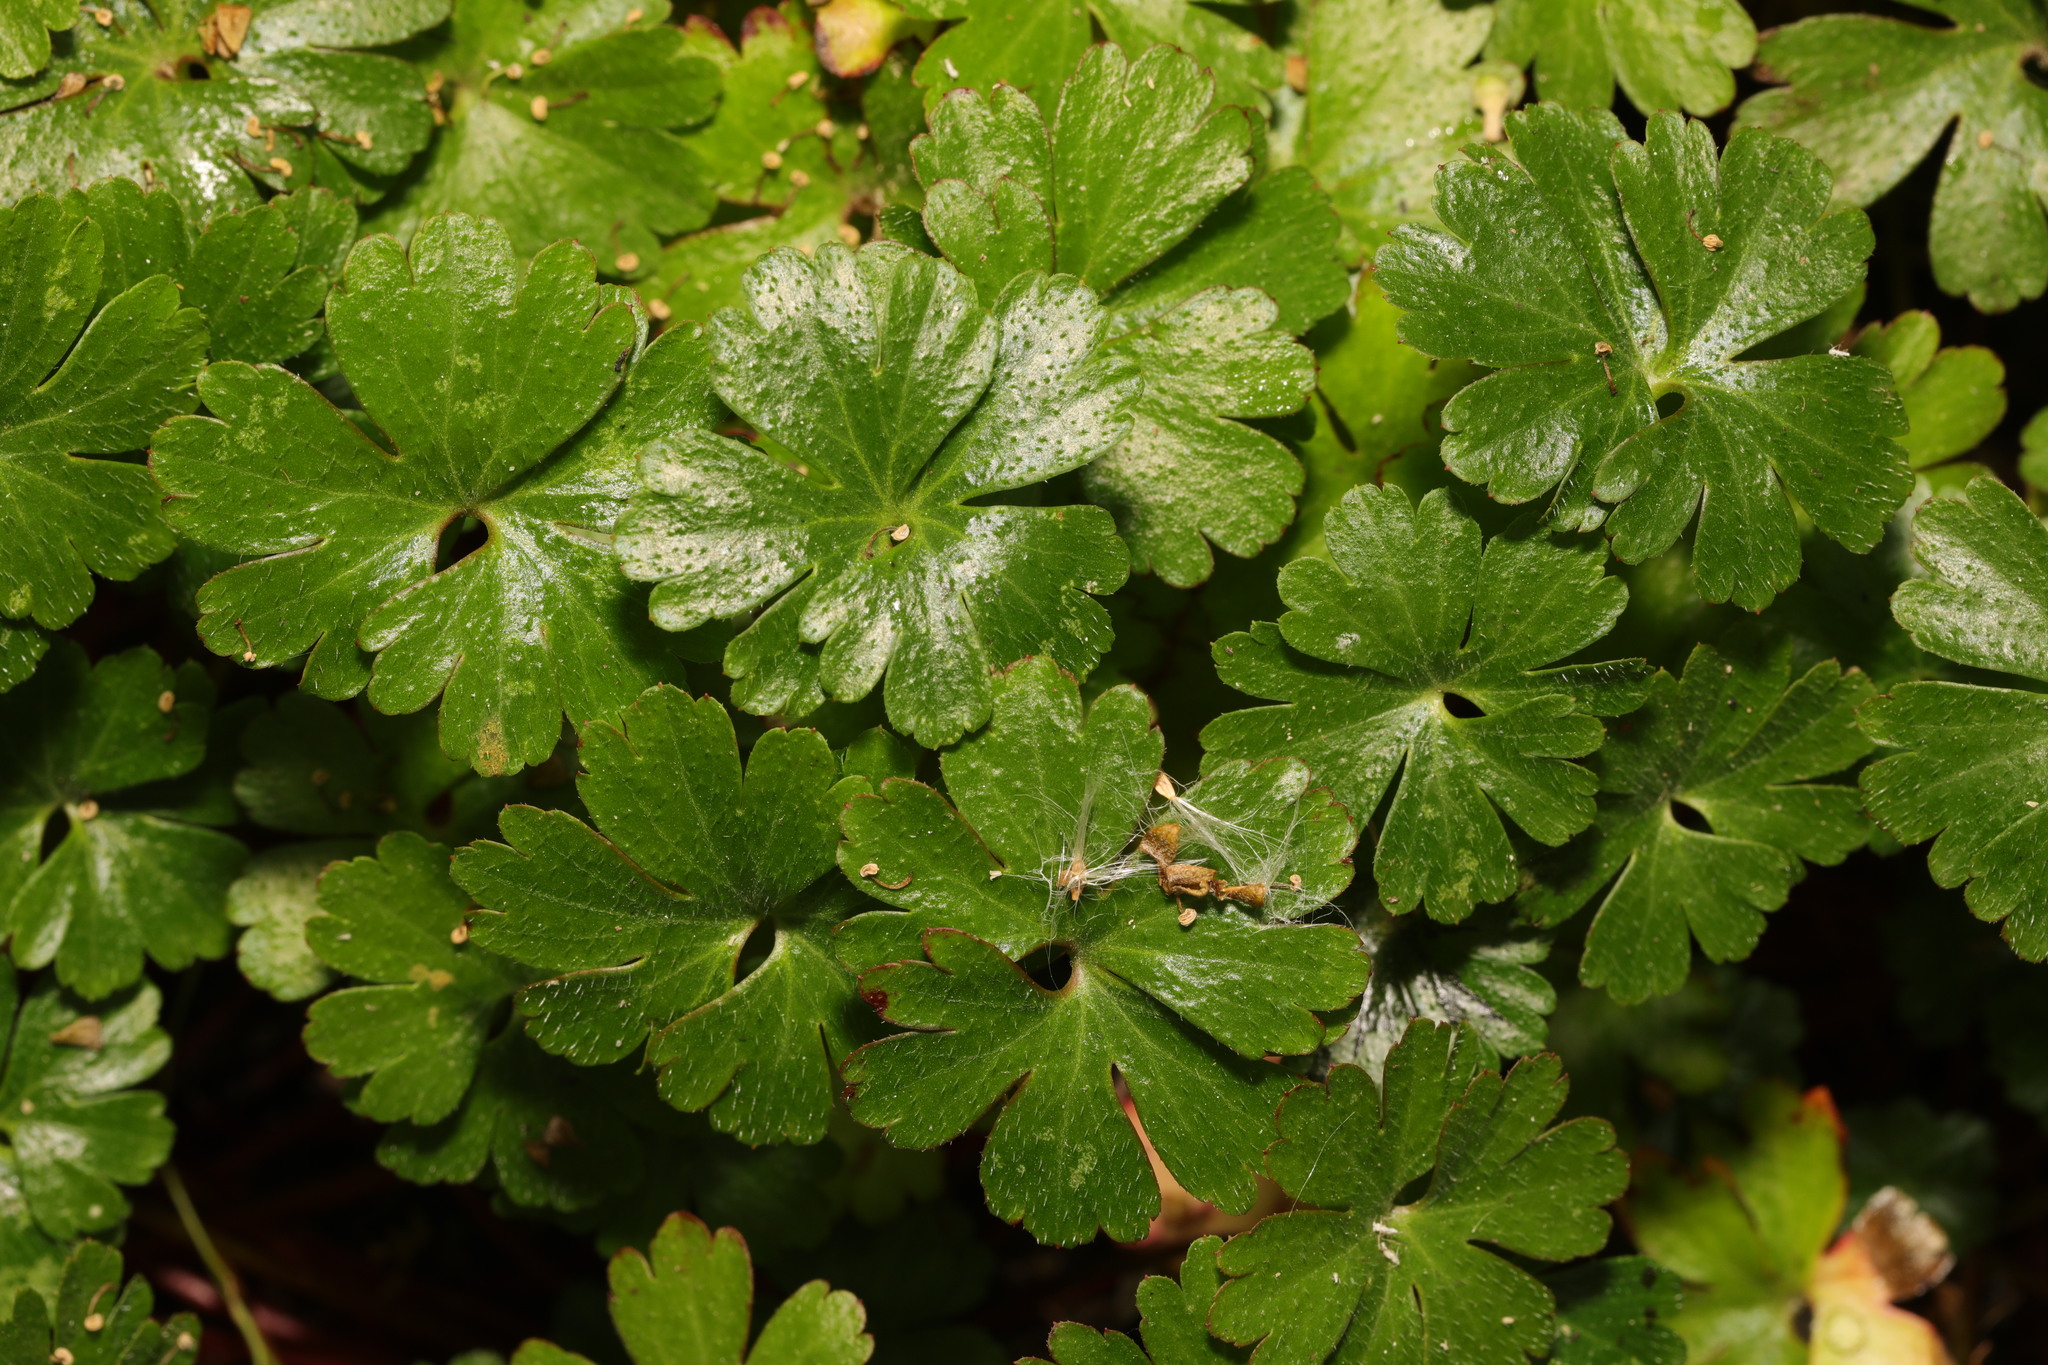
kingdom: Plantae
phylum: Tracheophyta
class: Magnoliopsida
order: Geraniales
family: Geraniaceae
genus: Geranium
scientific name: Geranium lucidum
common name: Shining crane's-bill
